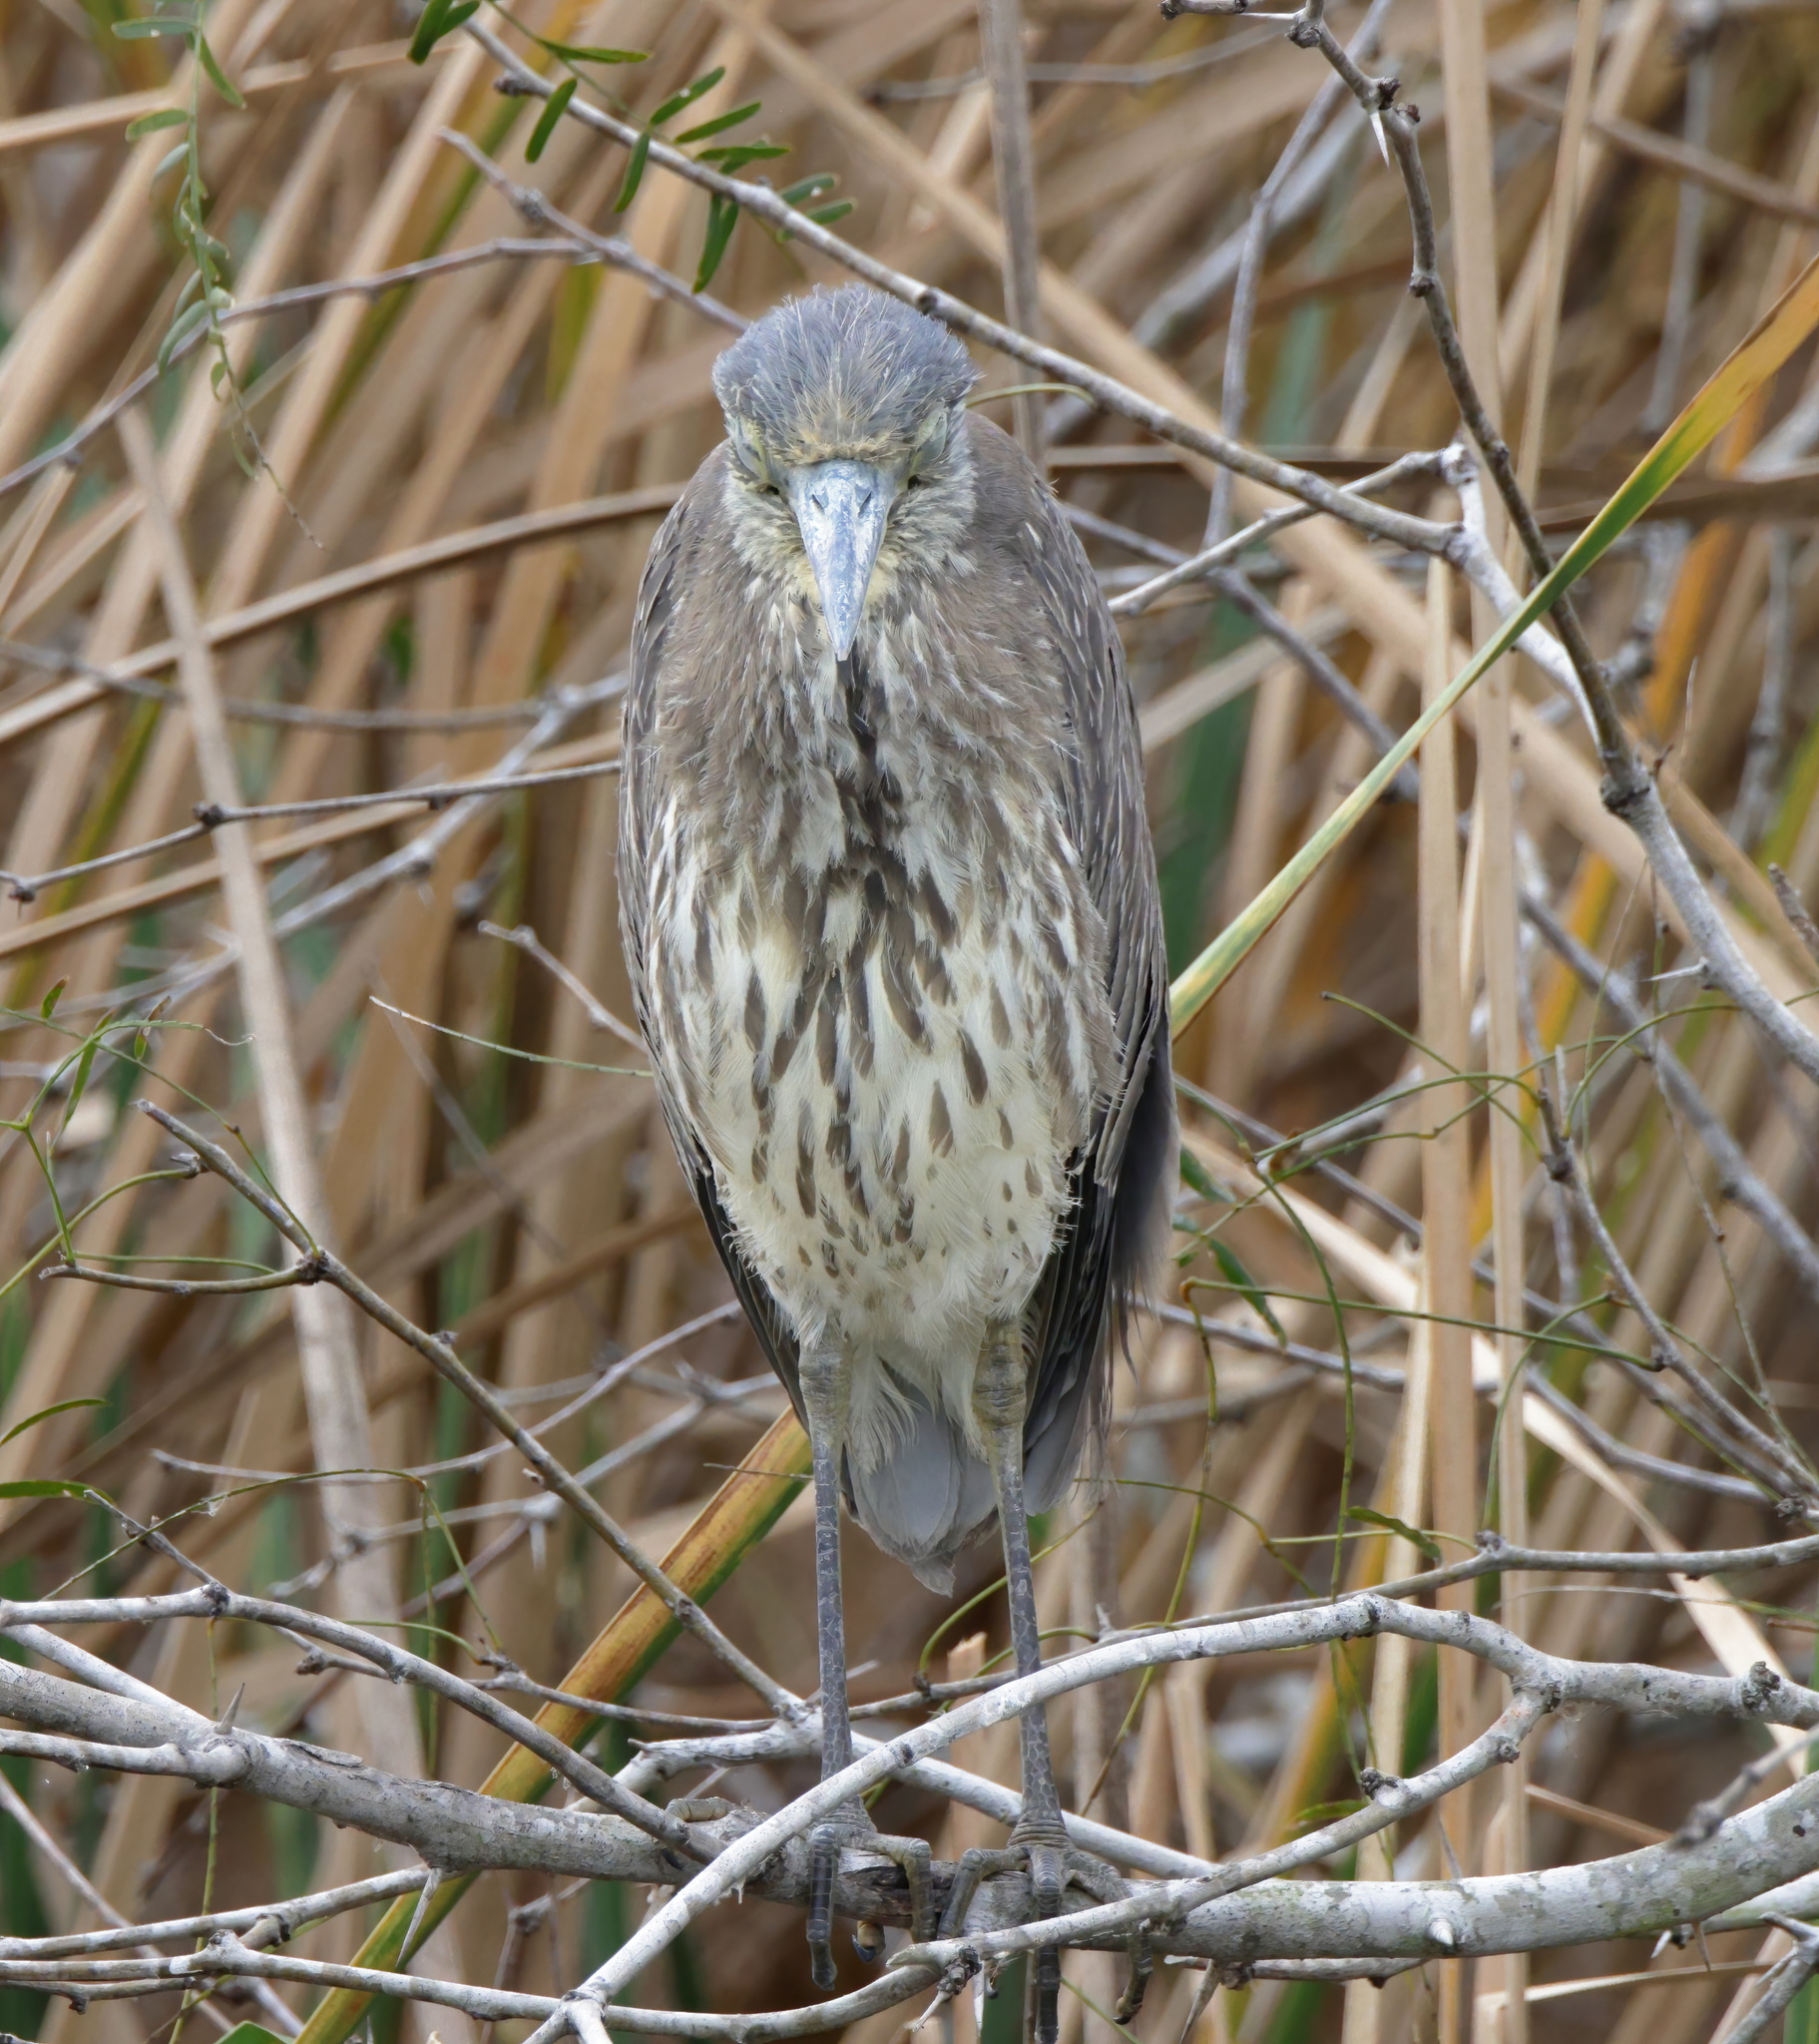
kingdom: Animalia
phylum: Chordata
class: Aves
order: Pelecaniformes
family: Ardeidae
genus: Nyctanassa
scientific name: Nyctanassa violacea
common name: Yellow-crowned night heron
